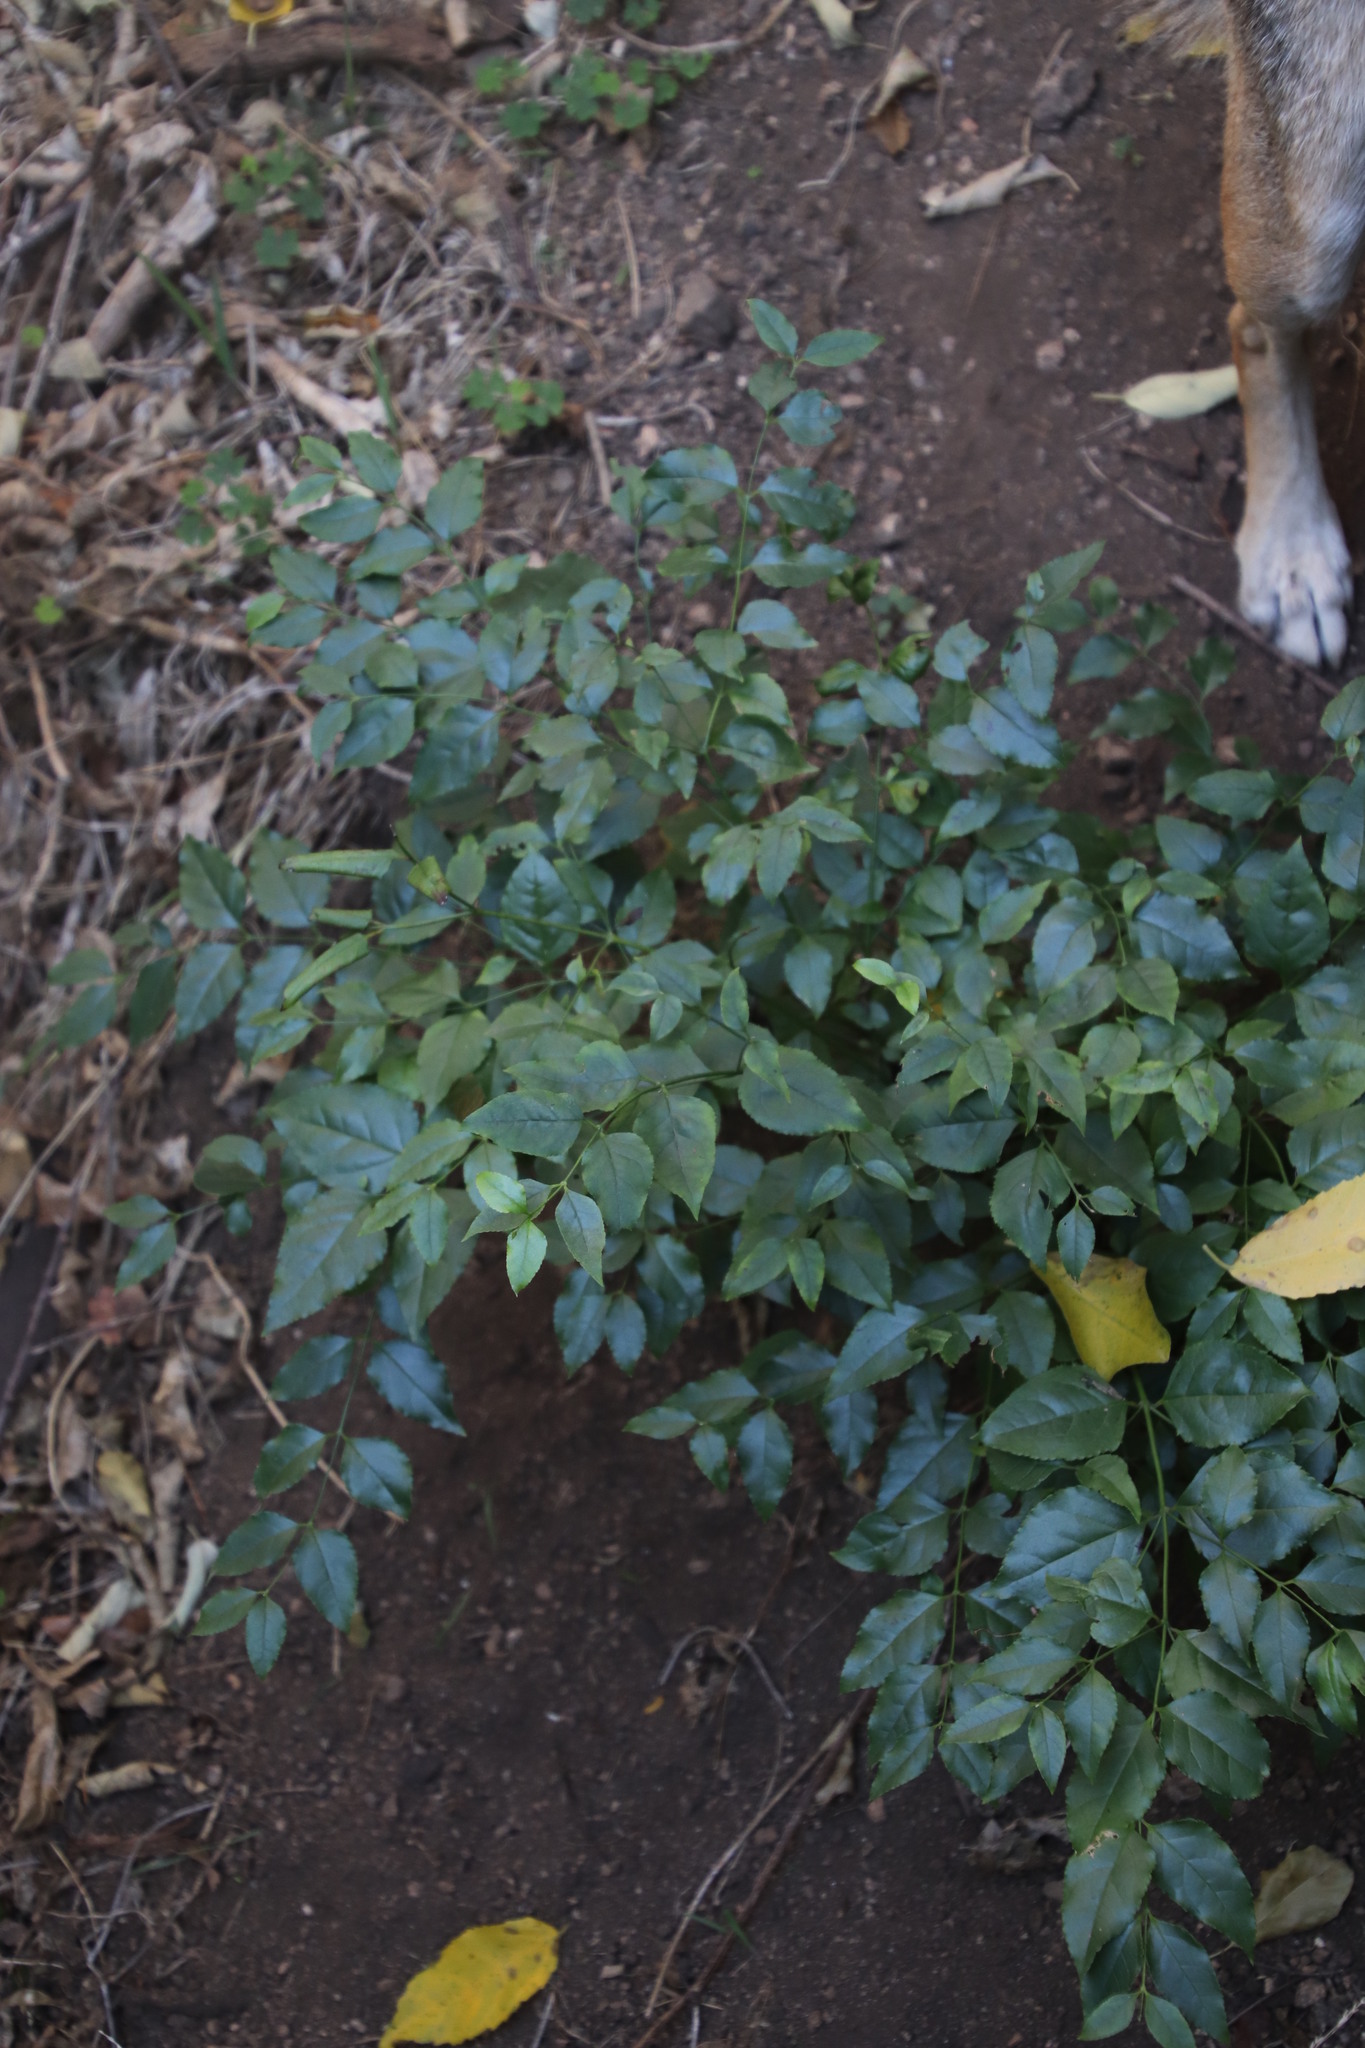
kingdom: Plantae
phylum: Tracheophyta
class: Magnoliopsida
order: Lamiales
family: Stilbaceae
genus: Halleria
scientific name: Halleria lucida
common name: Tree fuschia
